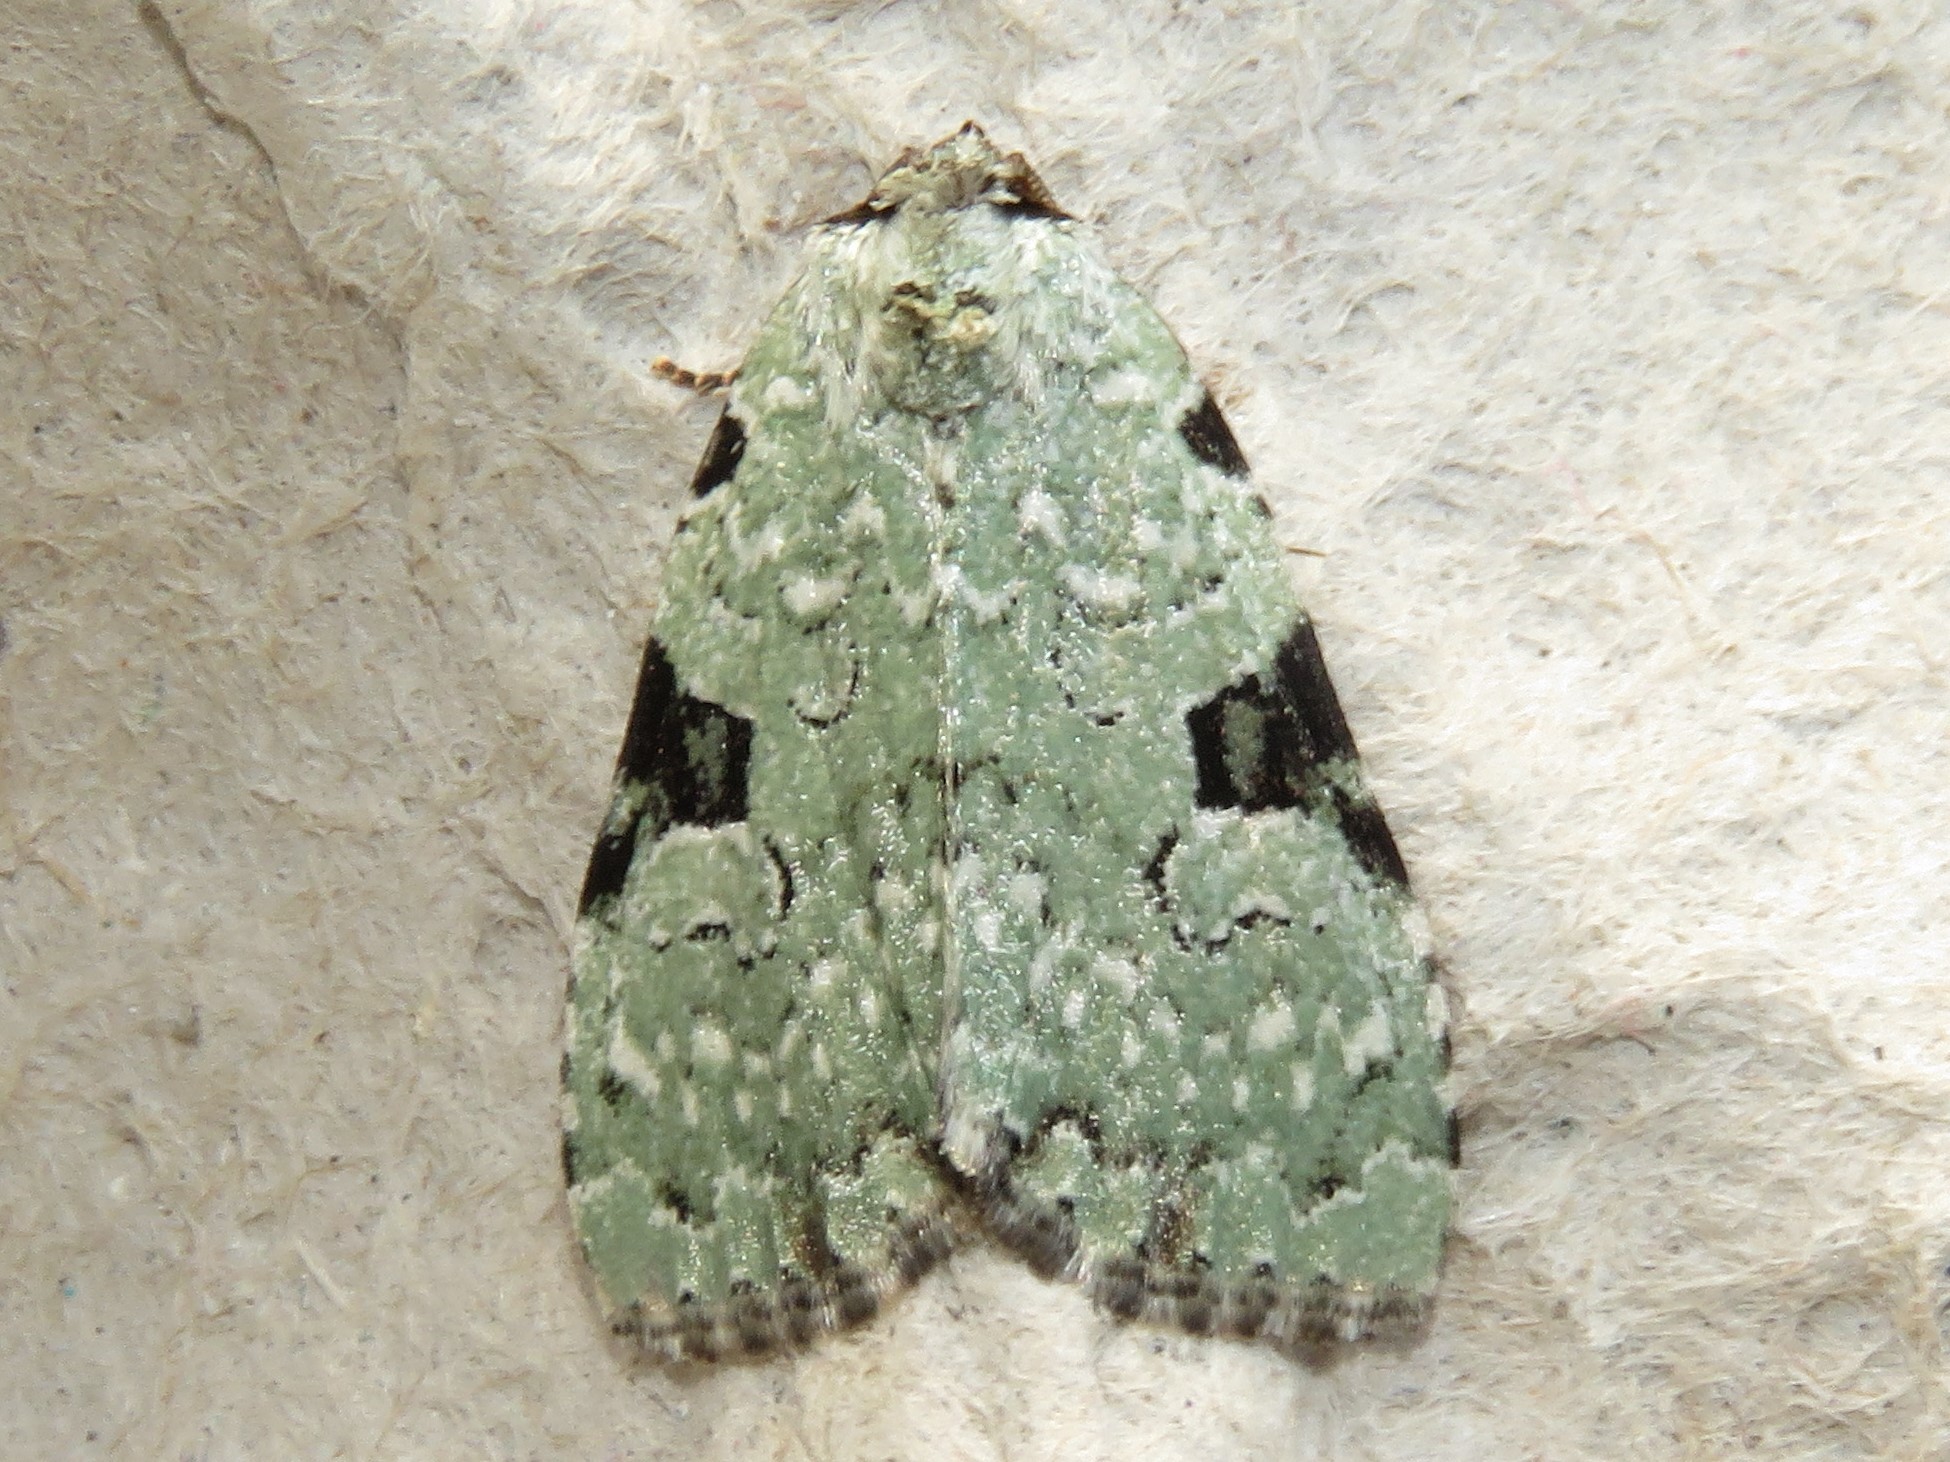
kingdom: Animalia
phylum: Arthropoda
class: Insecta
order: Lepidoptera
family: Noctuidae
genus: Leuconycta
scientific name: Leuconycta diphteroides
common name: Green leuconycta moth
